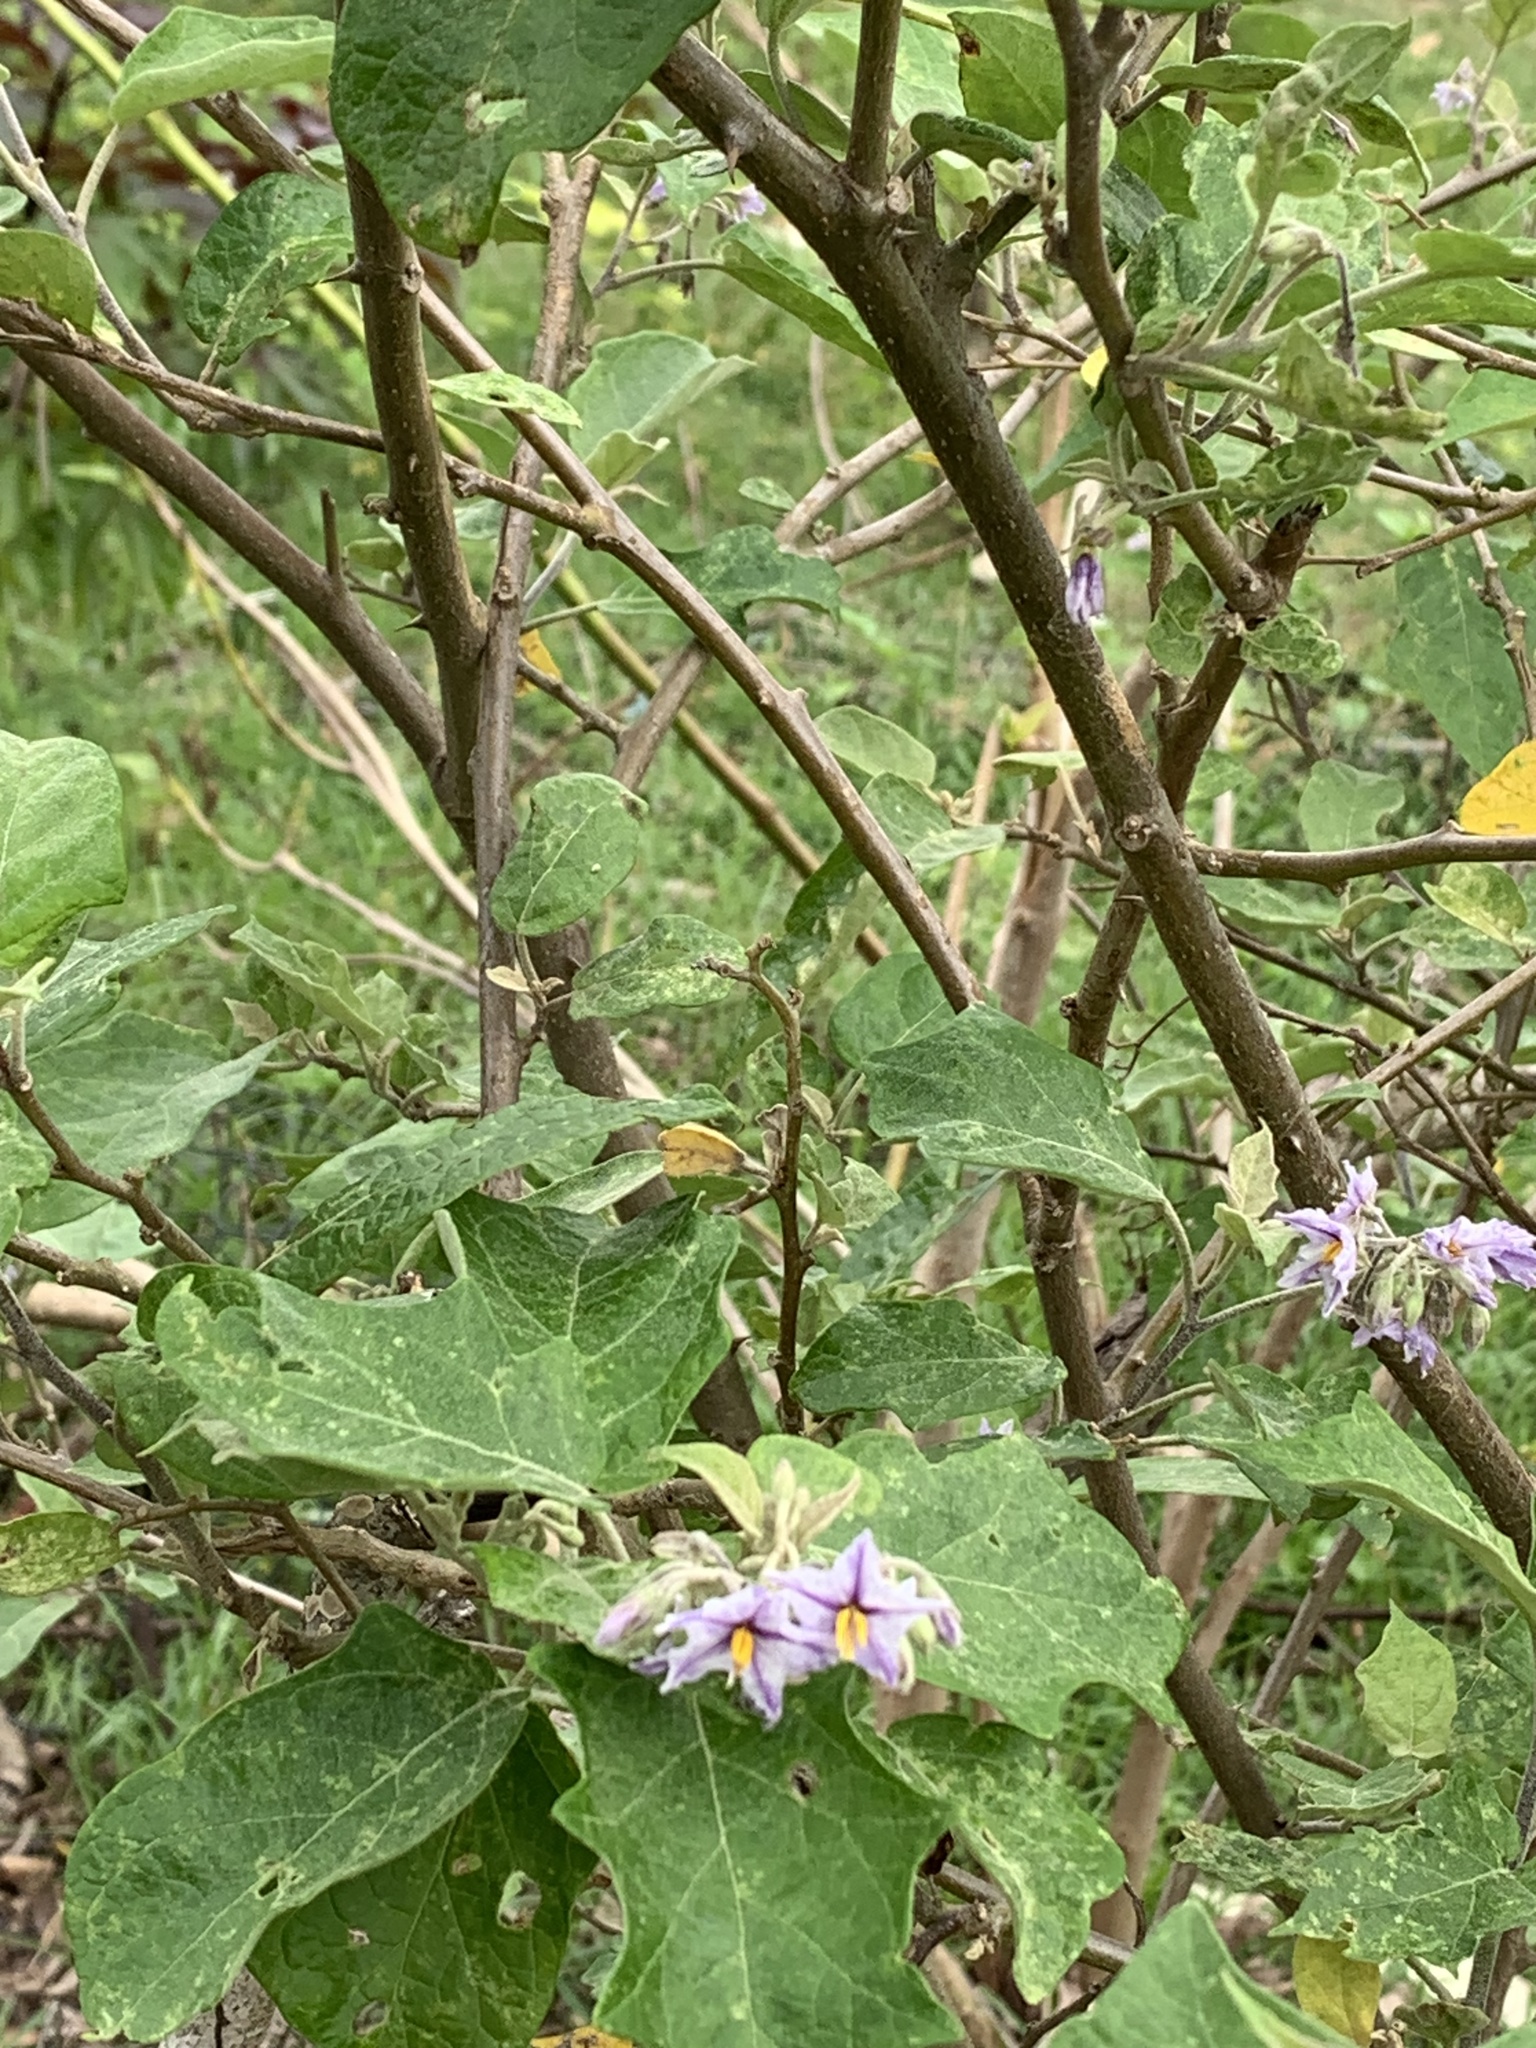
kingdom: Plantae
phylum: Tracheophyta
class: Magnoliopsida
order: Solanales
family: Solanaceae
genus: Solanum
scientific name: Solanum paniculatum
